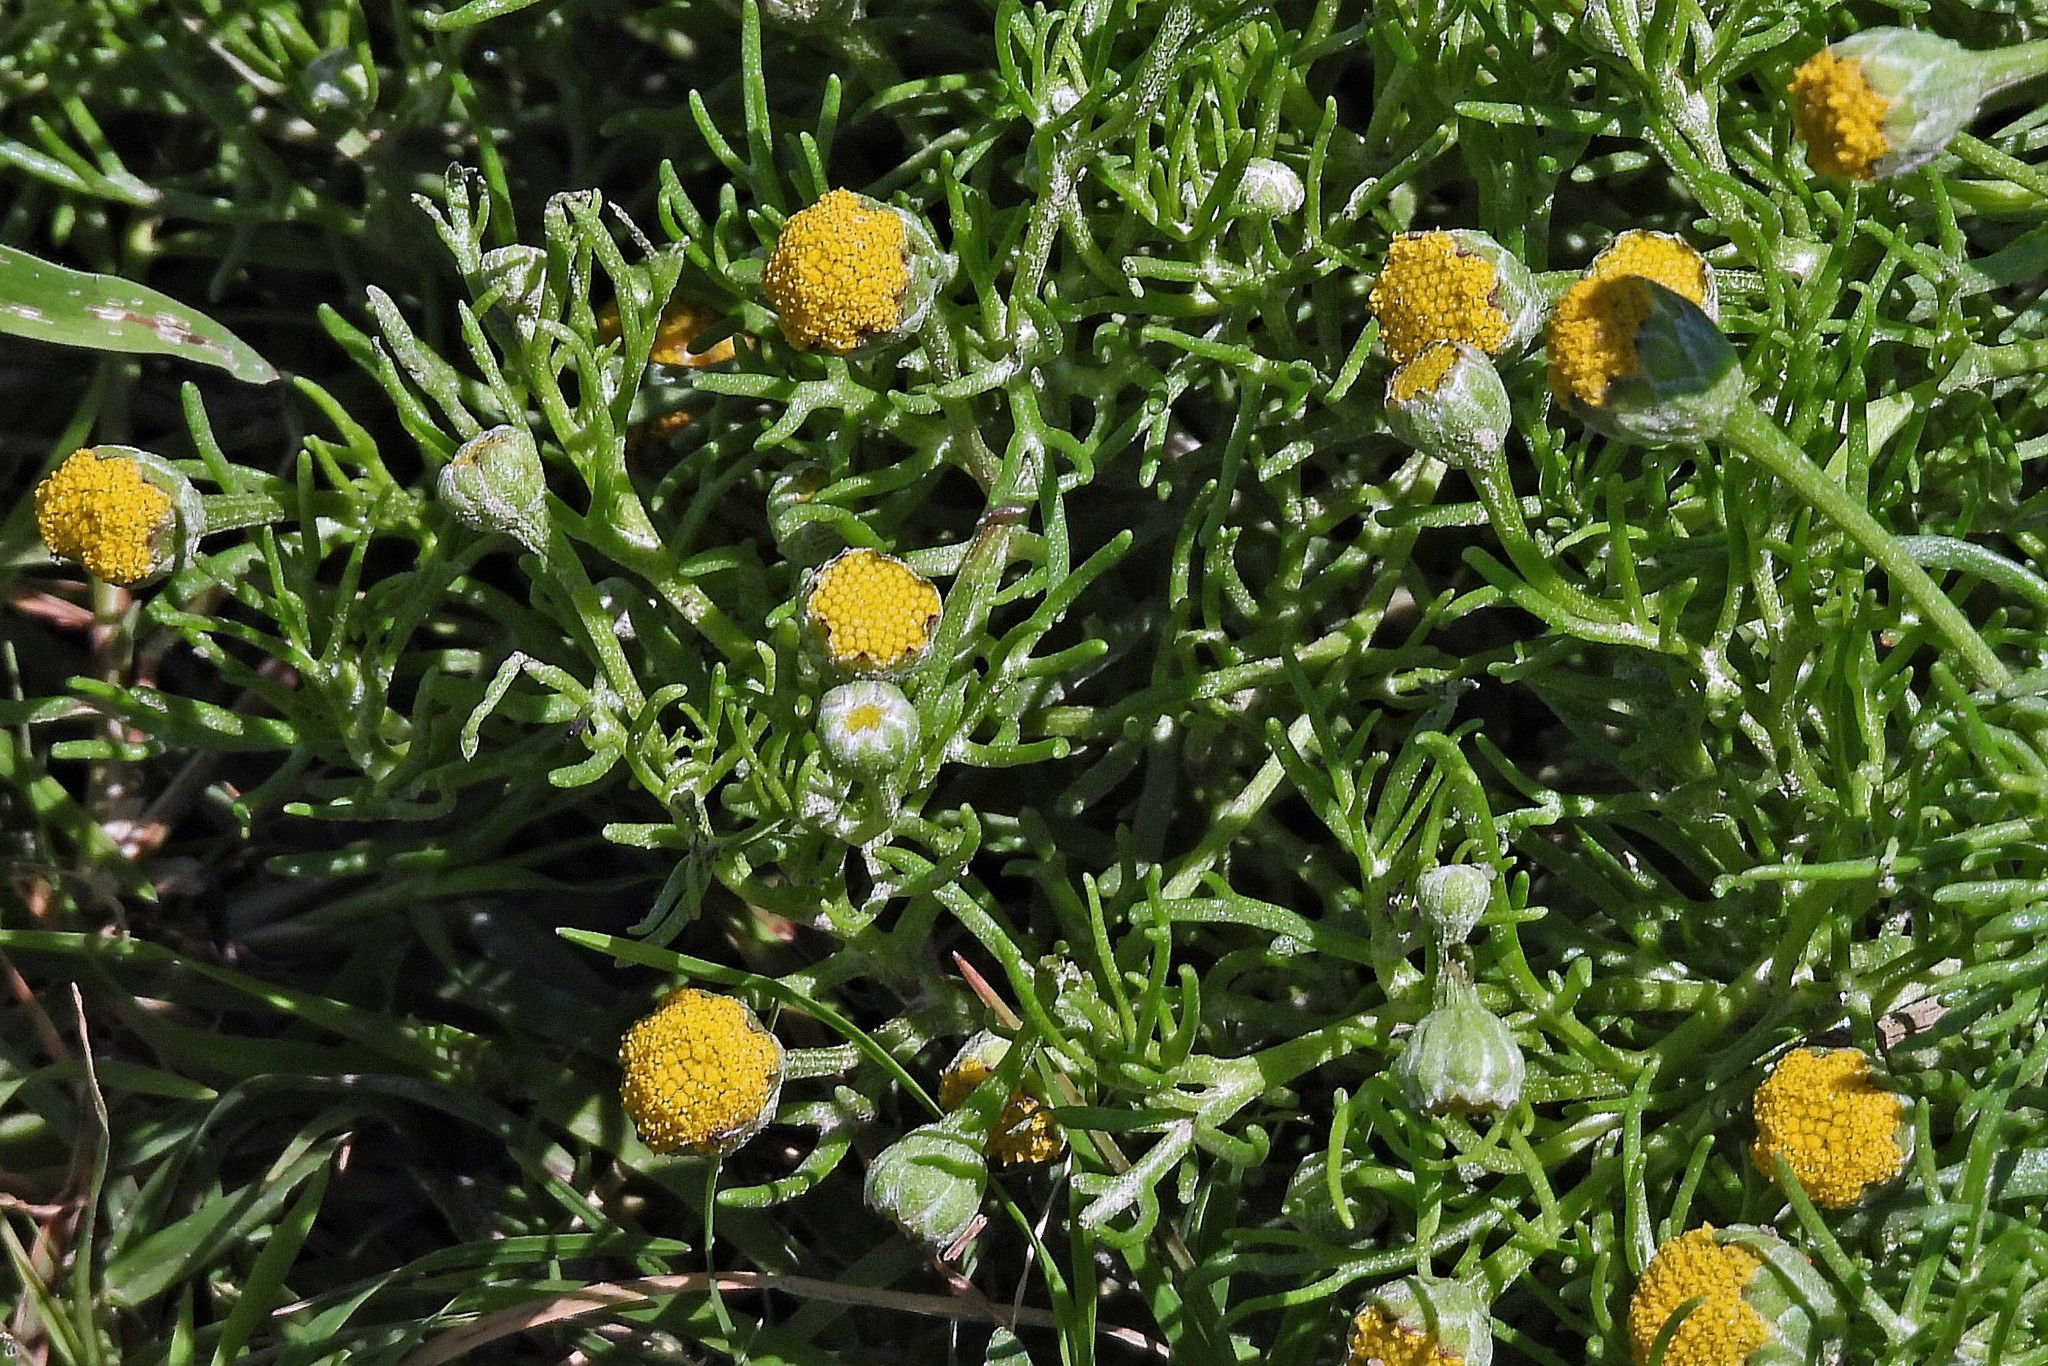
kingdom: Plantae
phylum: Tracheophyta
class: Magnoliopsida
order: Asterales
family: Asteraceae
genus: Hymenoxys
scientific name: Hymenoxys anthemoides
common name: South american rubberweed
